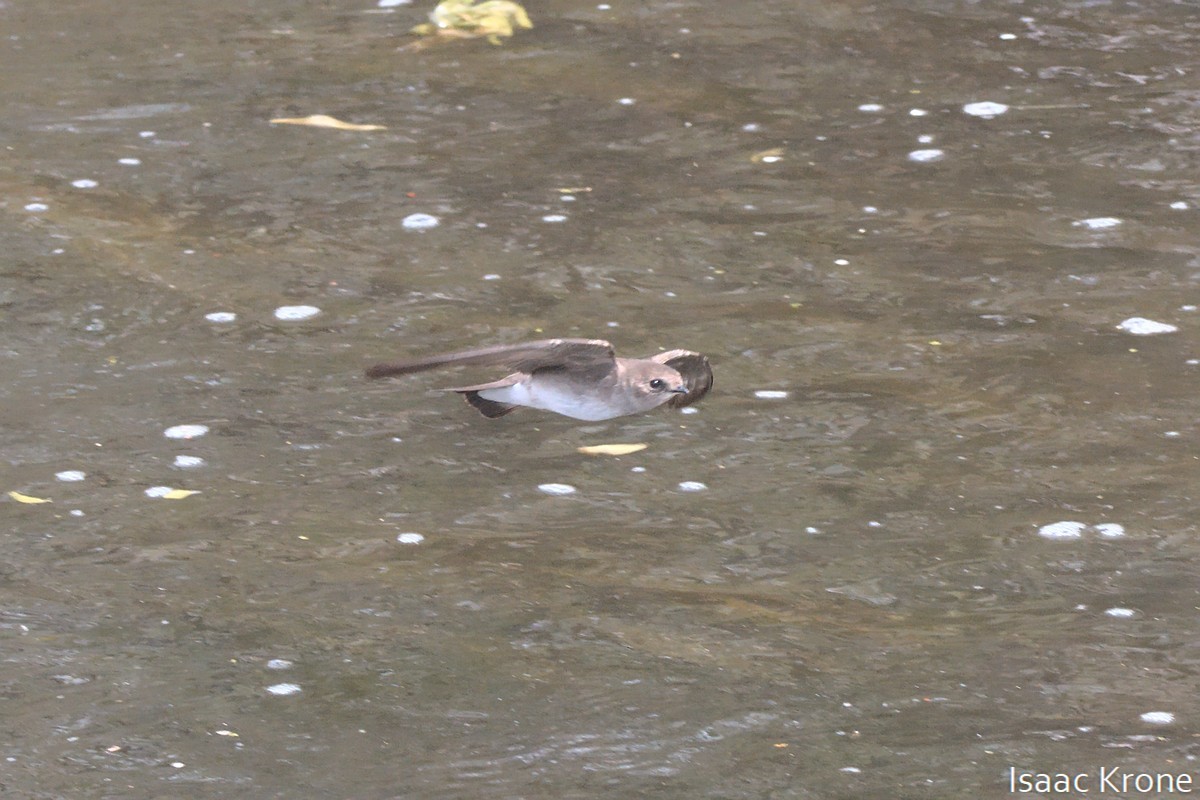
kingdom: Animalia
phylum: Chordata
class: Aves
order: Passeriformes
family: Hirundinidae
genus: Stelgidopteryx
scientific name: Stelgidopteryx serripennis
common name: Northern rough-winged swallow
